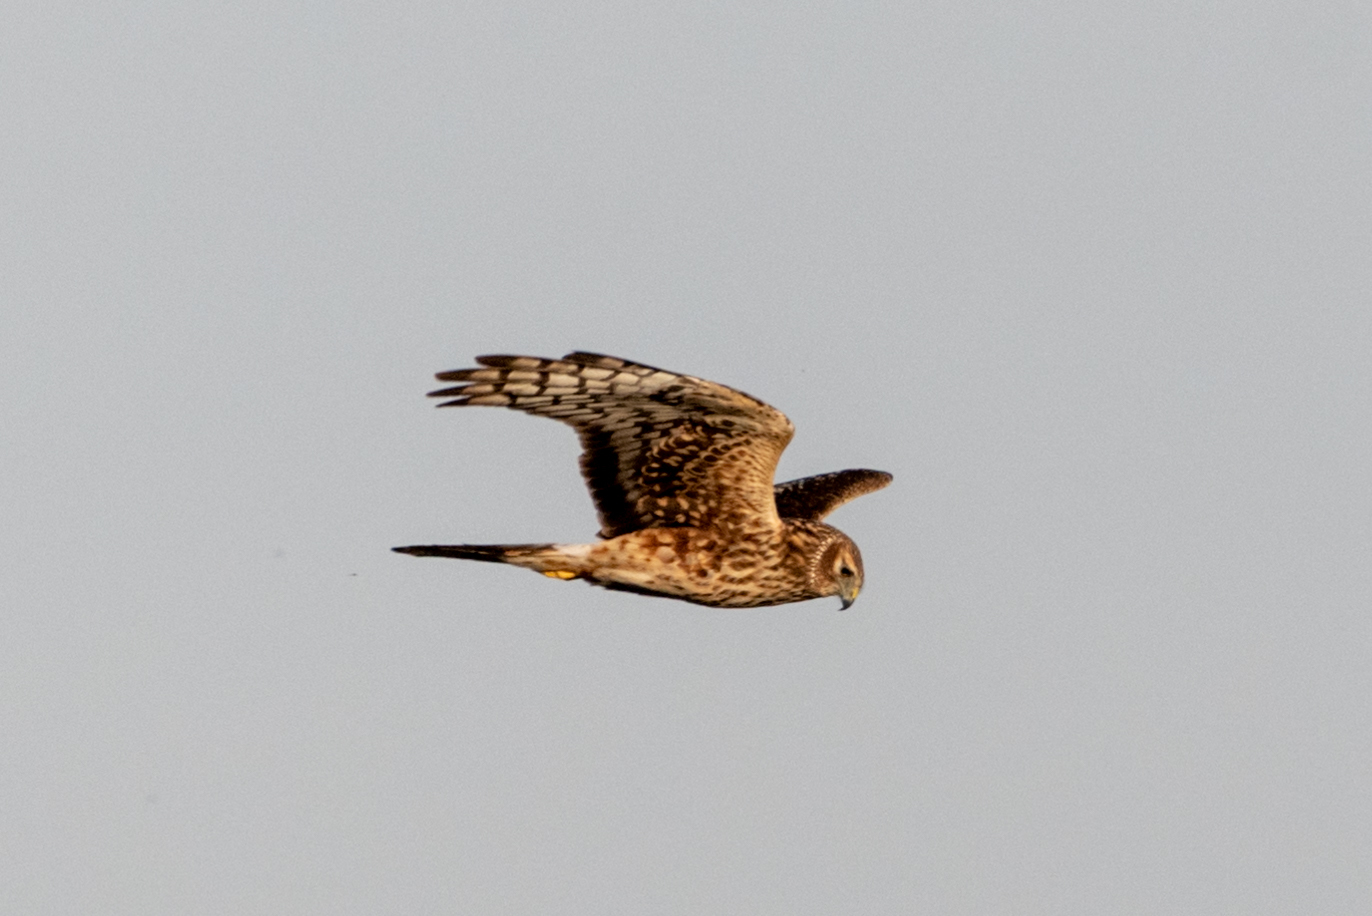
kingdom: Animalia
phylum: Chordata
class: Aves
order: Accipitriformes
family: Accipitridae
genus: Circus
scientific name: Circus cyaneus
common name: Hen harrier
